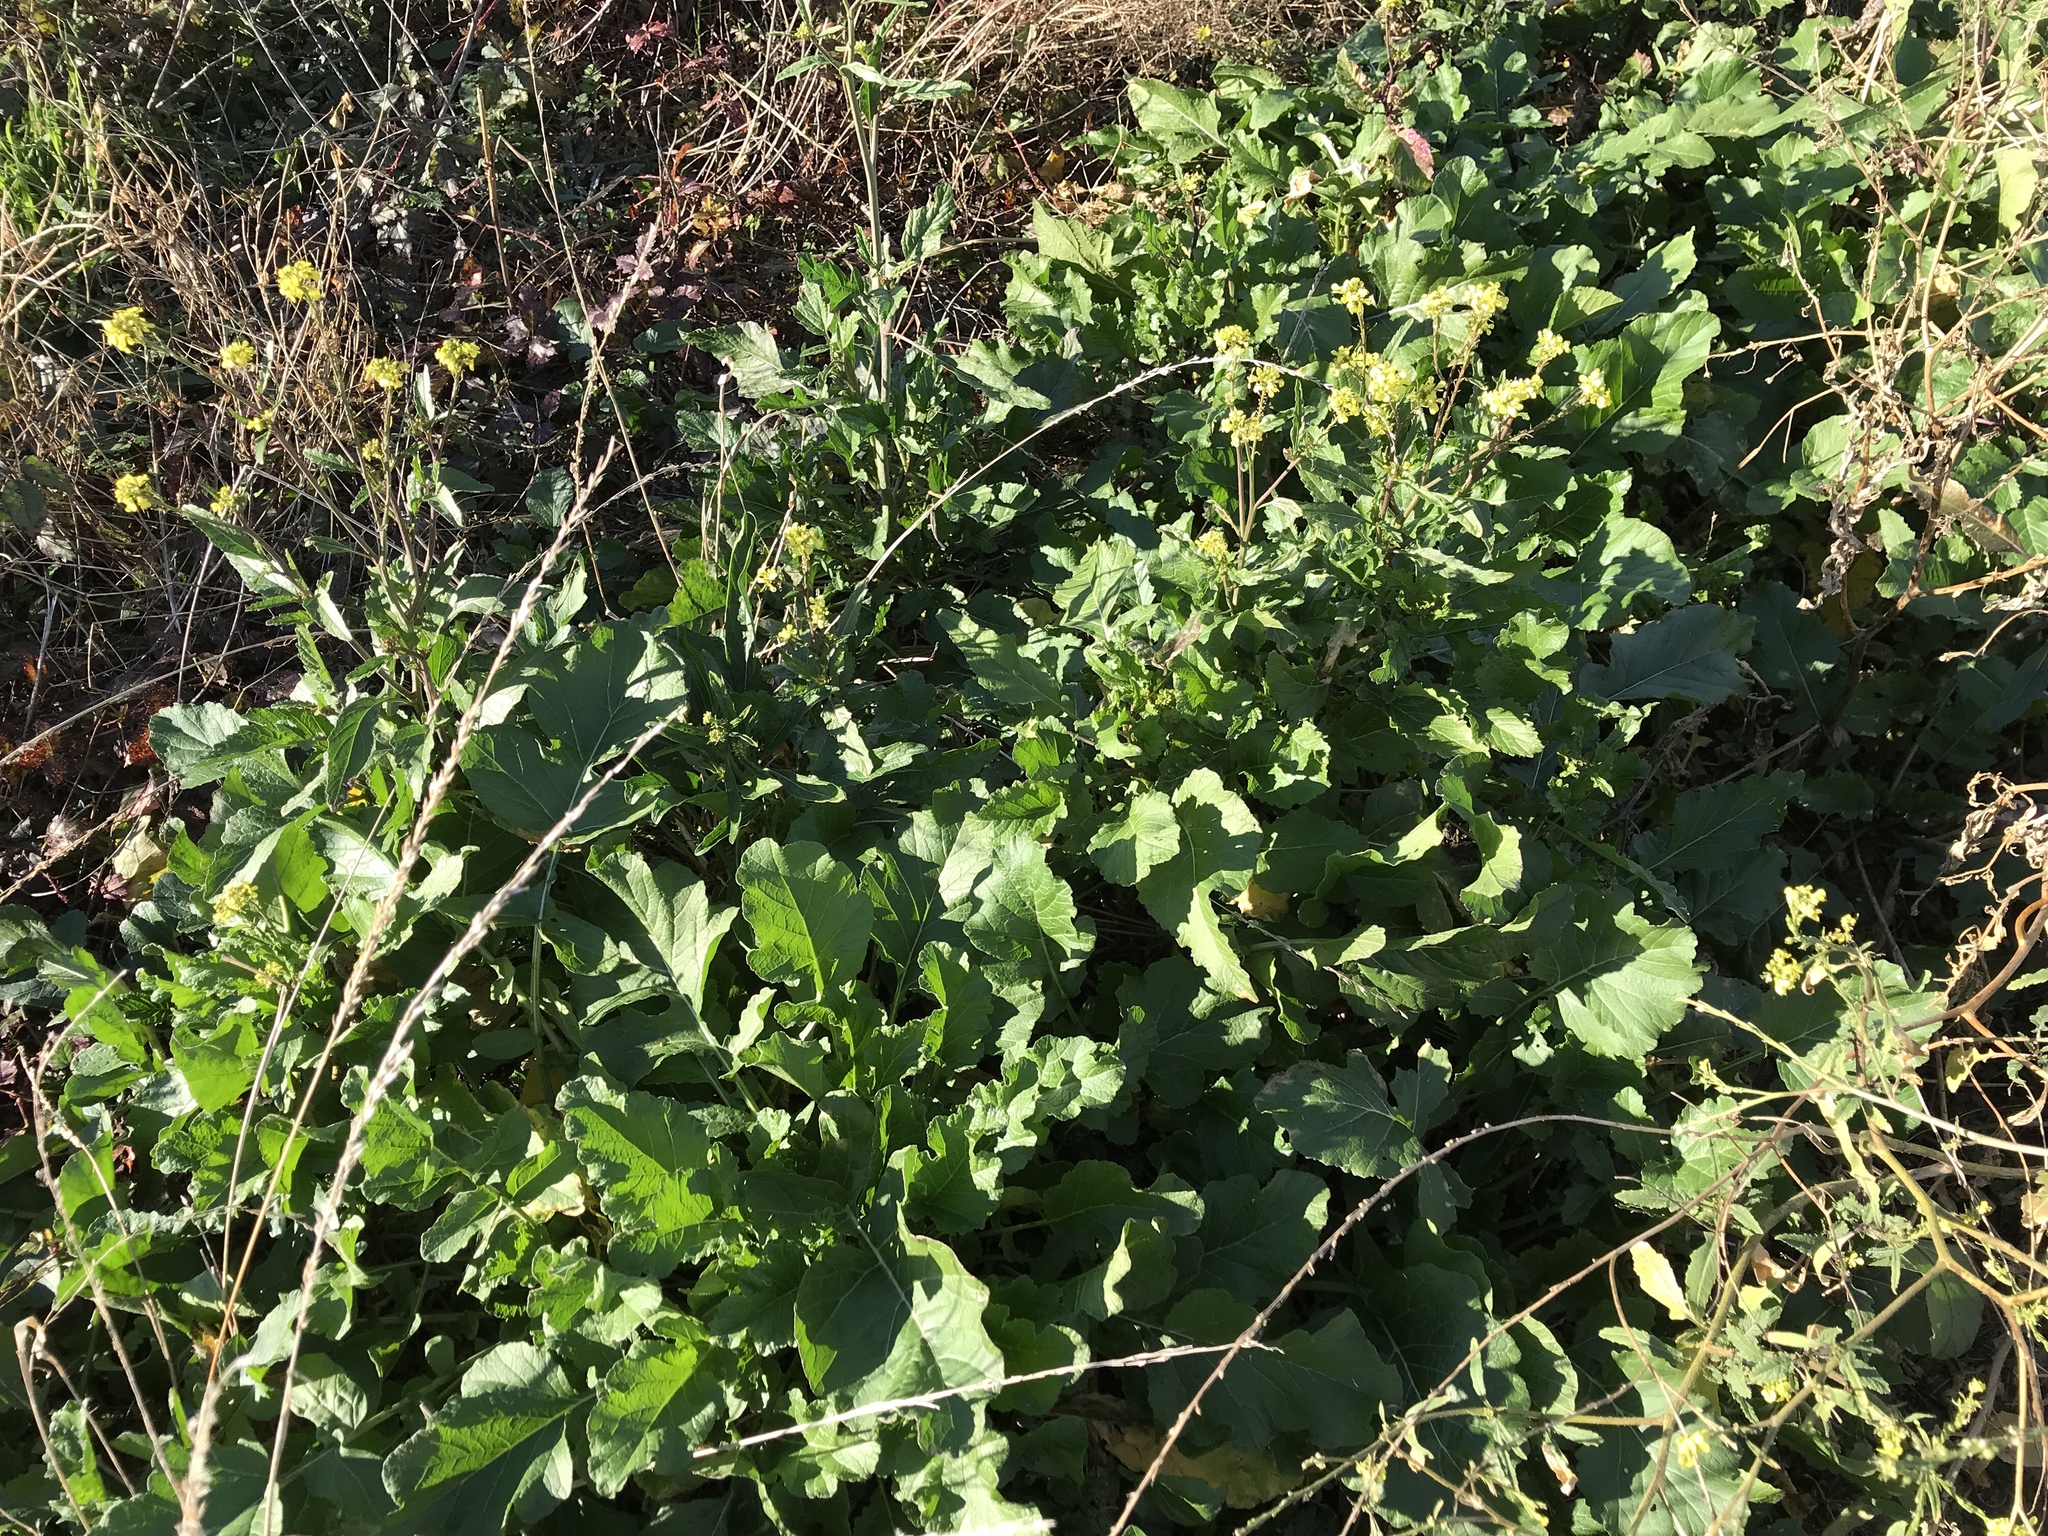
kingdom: Plantae
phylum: Tracheophyta
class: Magnoliopsida
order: Brassicales
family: Brassicaceae
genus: Rapistrum
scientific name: Rapistrum rugosum
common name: Annual bastardcabbage
